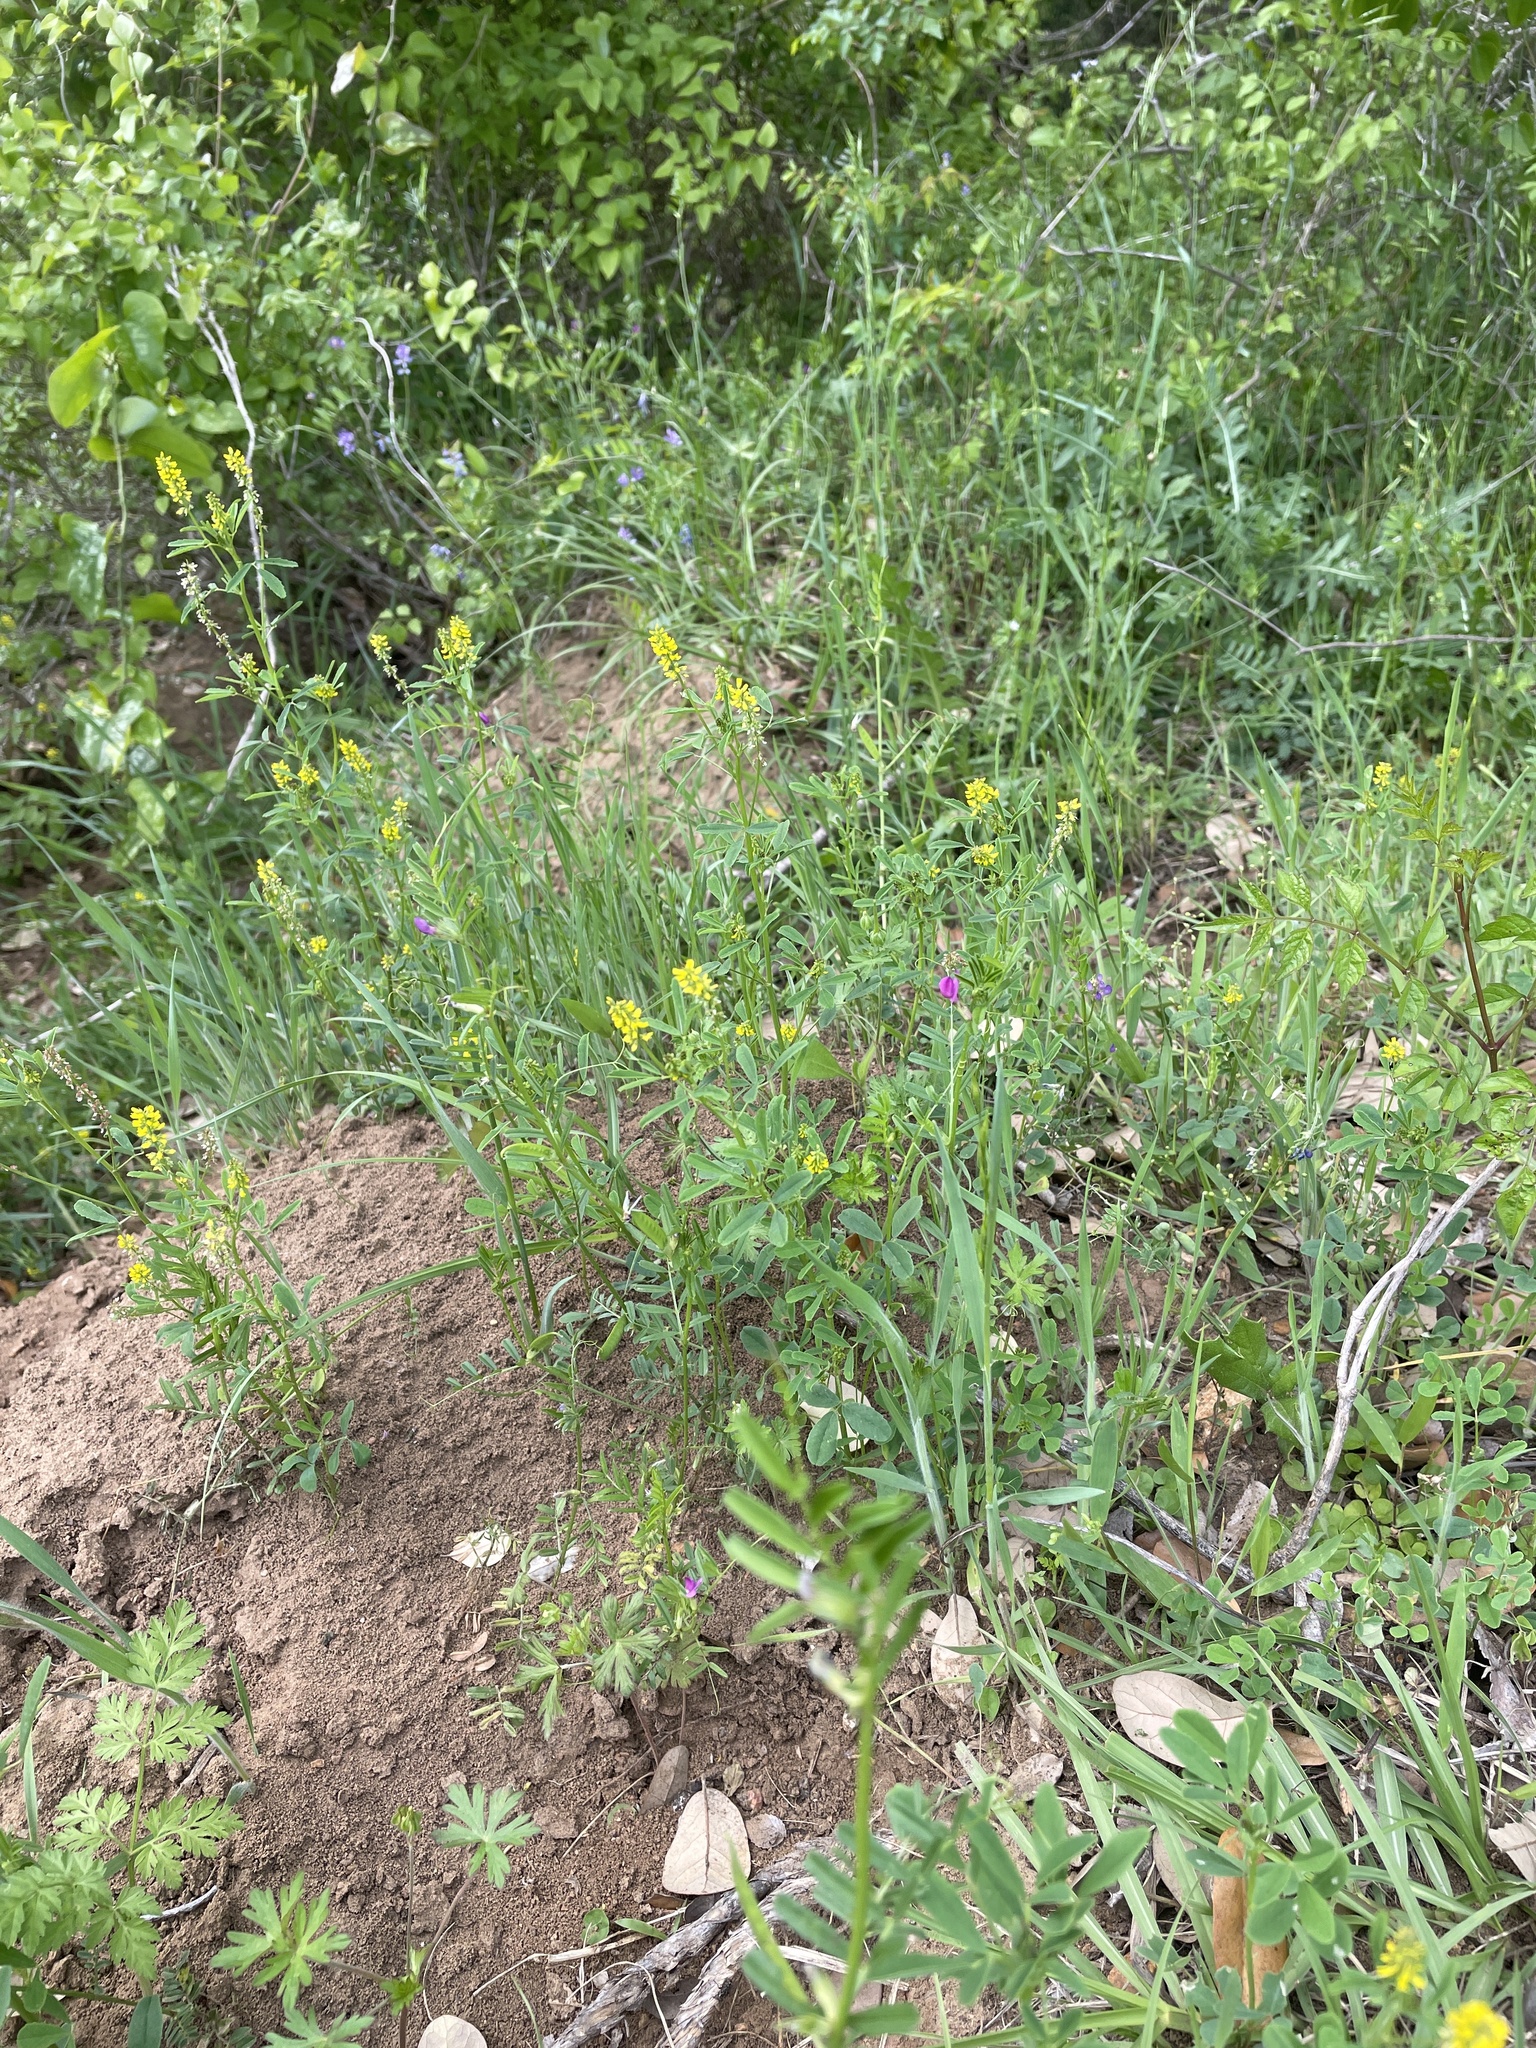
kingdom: Plantae
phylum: Tracheophyta
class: Magnoliopsida
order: Fabales
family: Fabaceae
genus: Melilotus
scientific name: Melilotus indicus
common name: Small melilot
